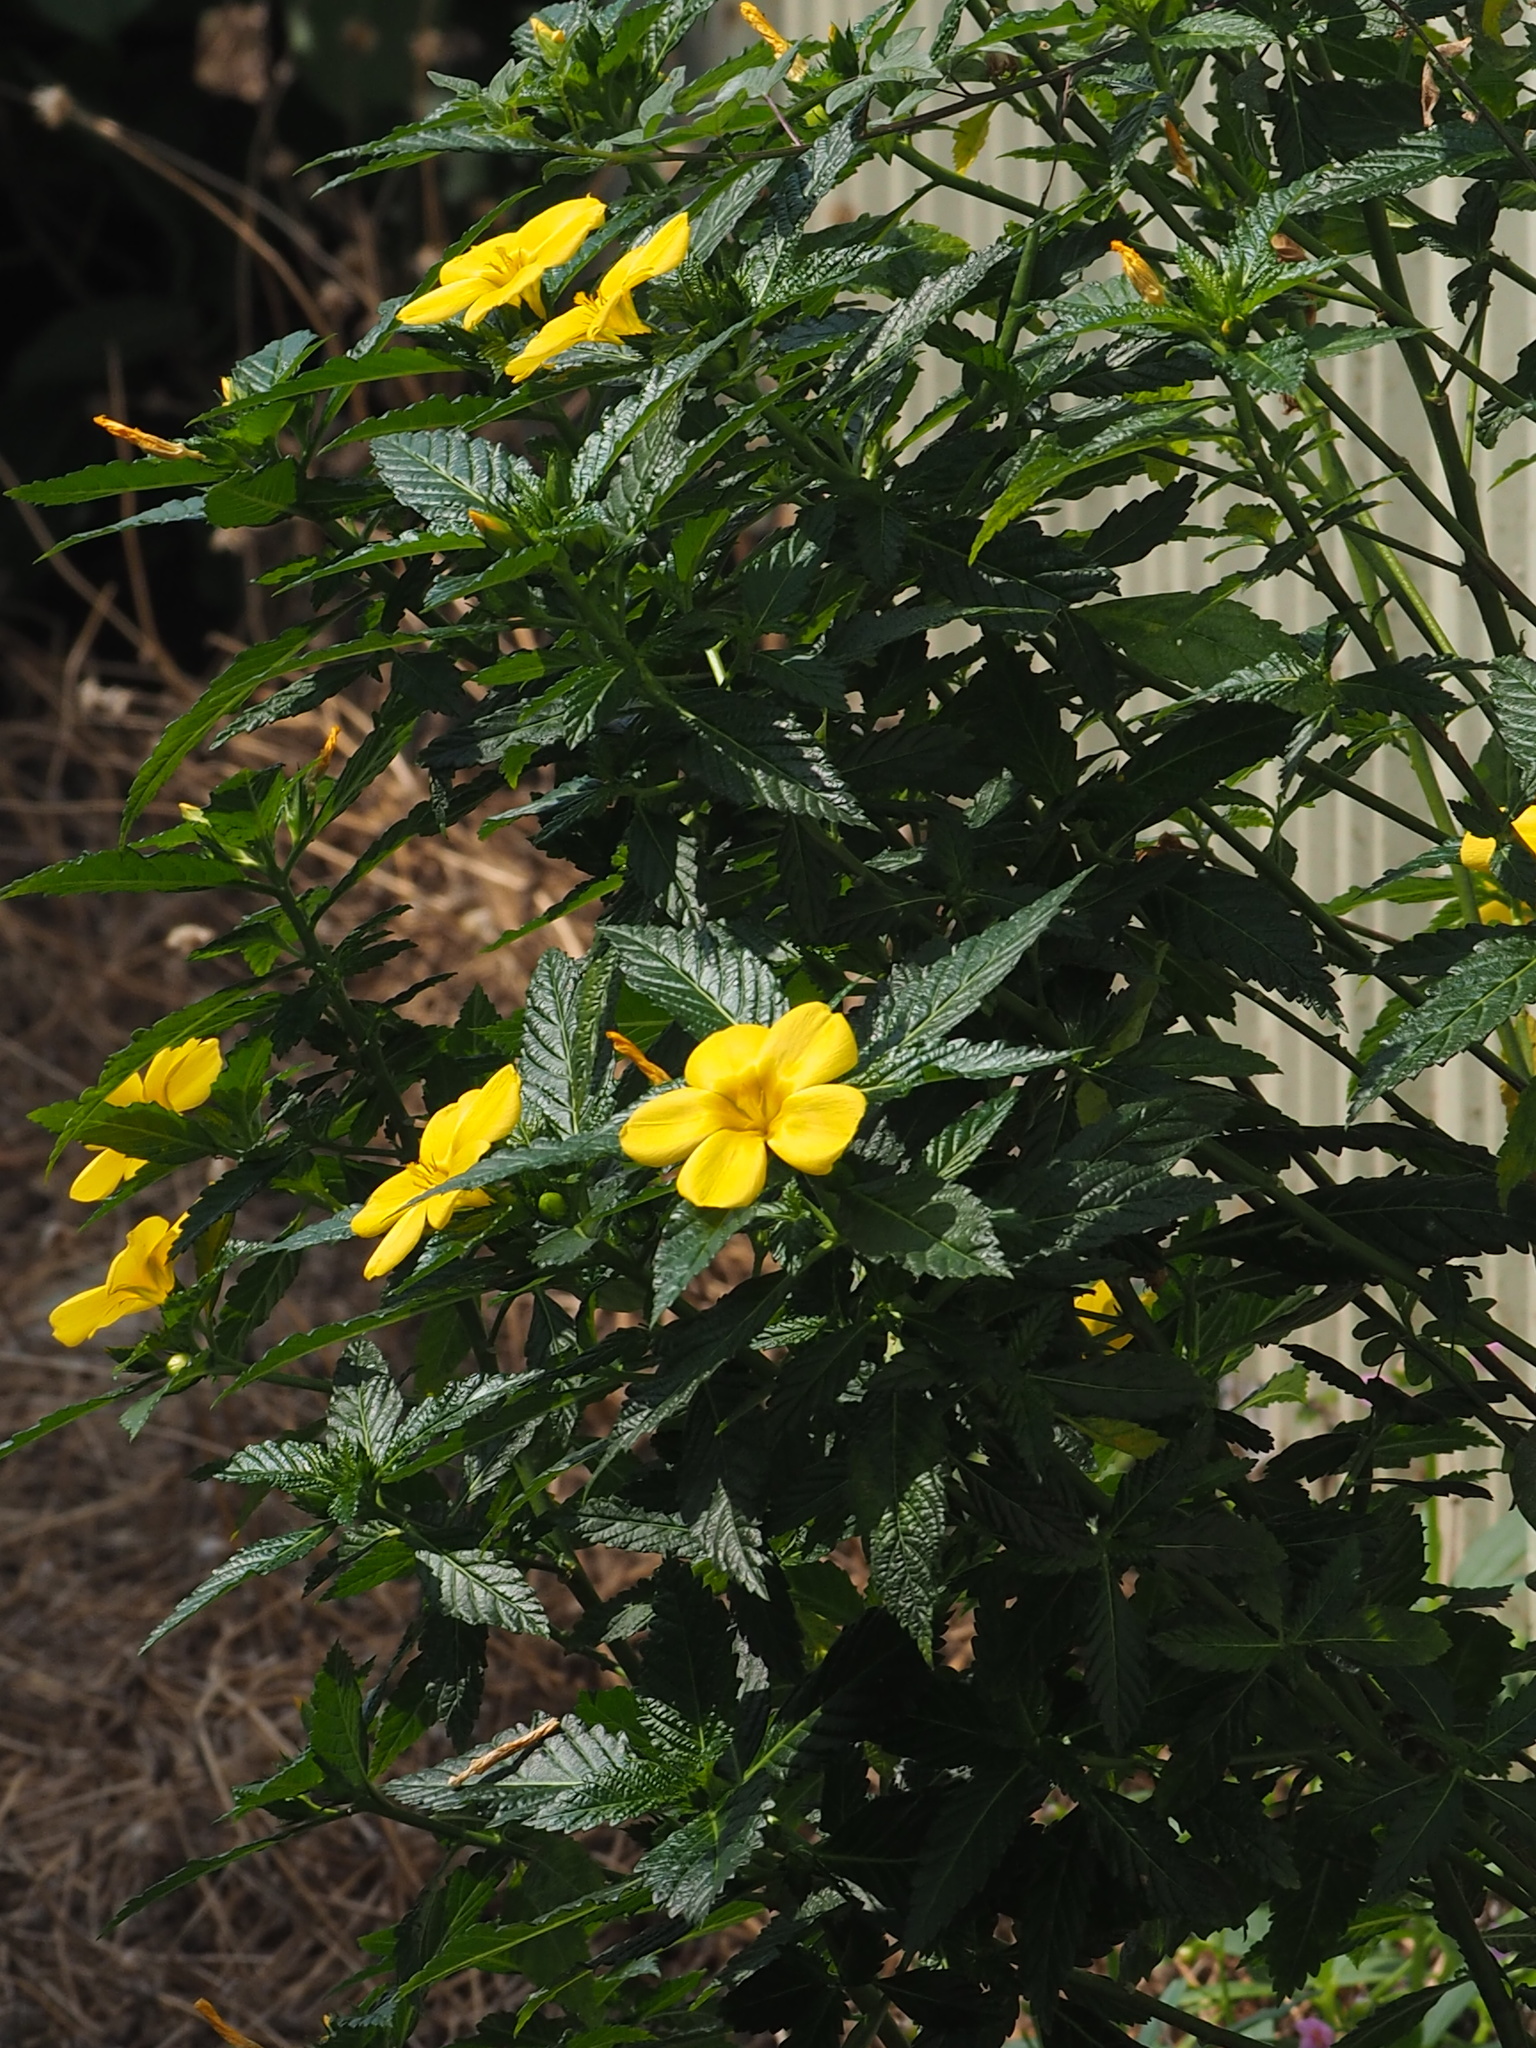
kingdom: Plantae
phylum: Tracheophyta
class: Magnoliopsida
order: Malpighiales
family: Turneraceae
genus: Turnera
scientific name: Turnera ulmifolia
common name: Ramgoat dashalong
